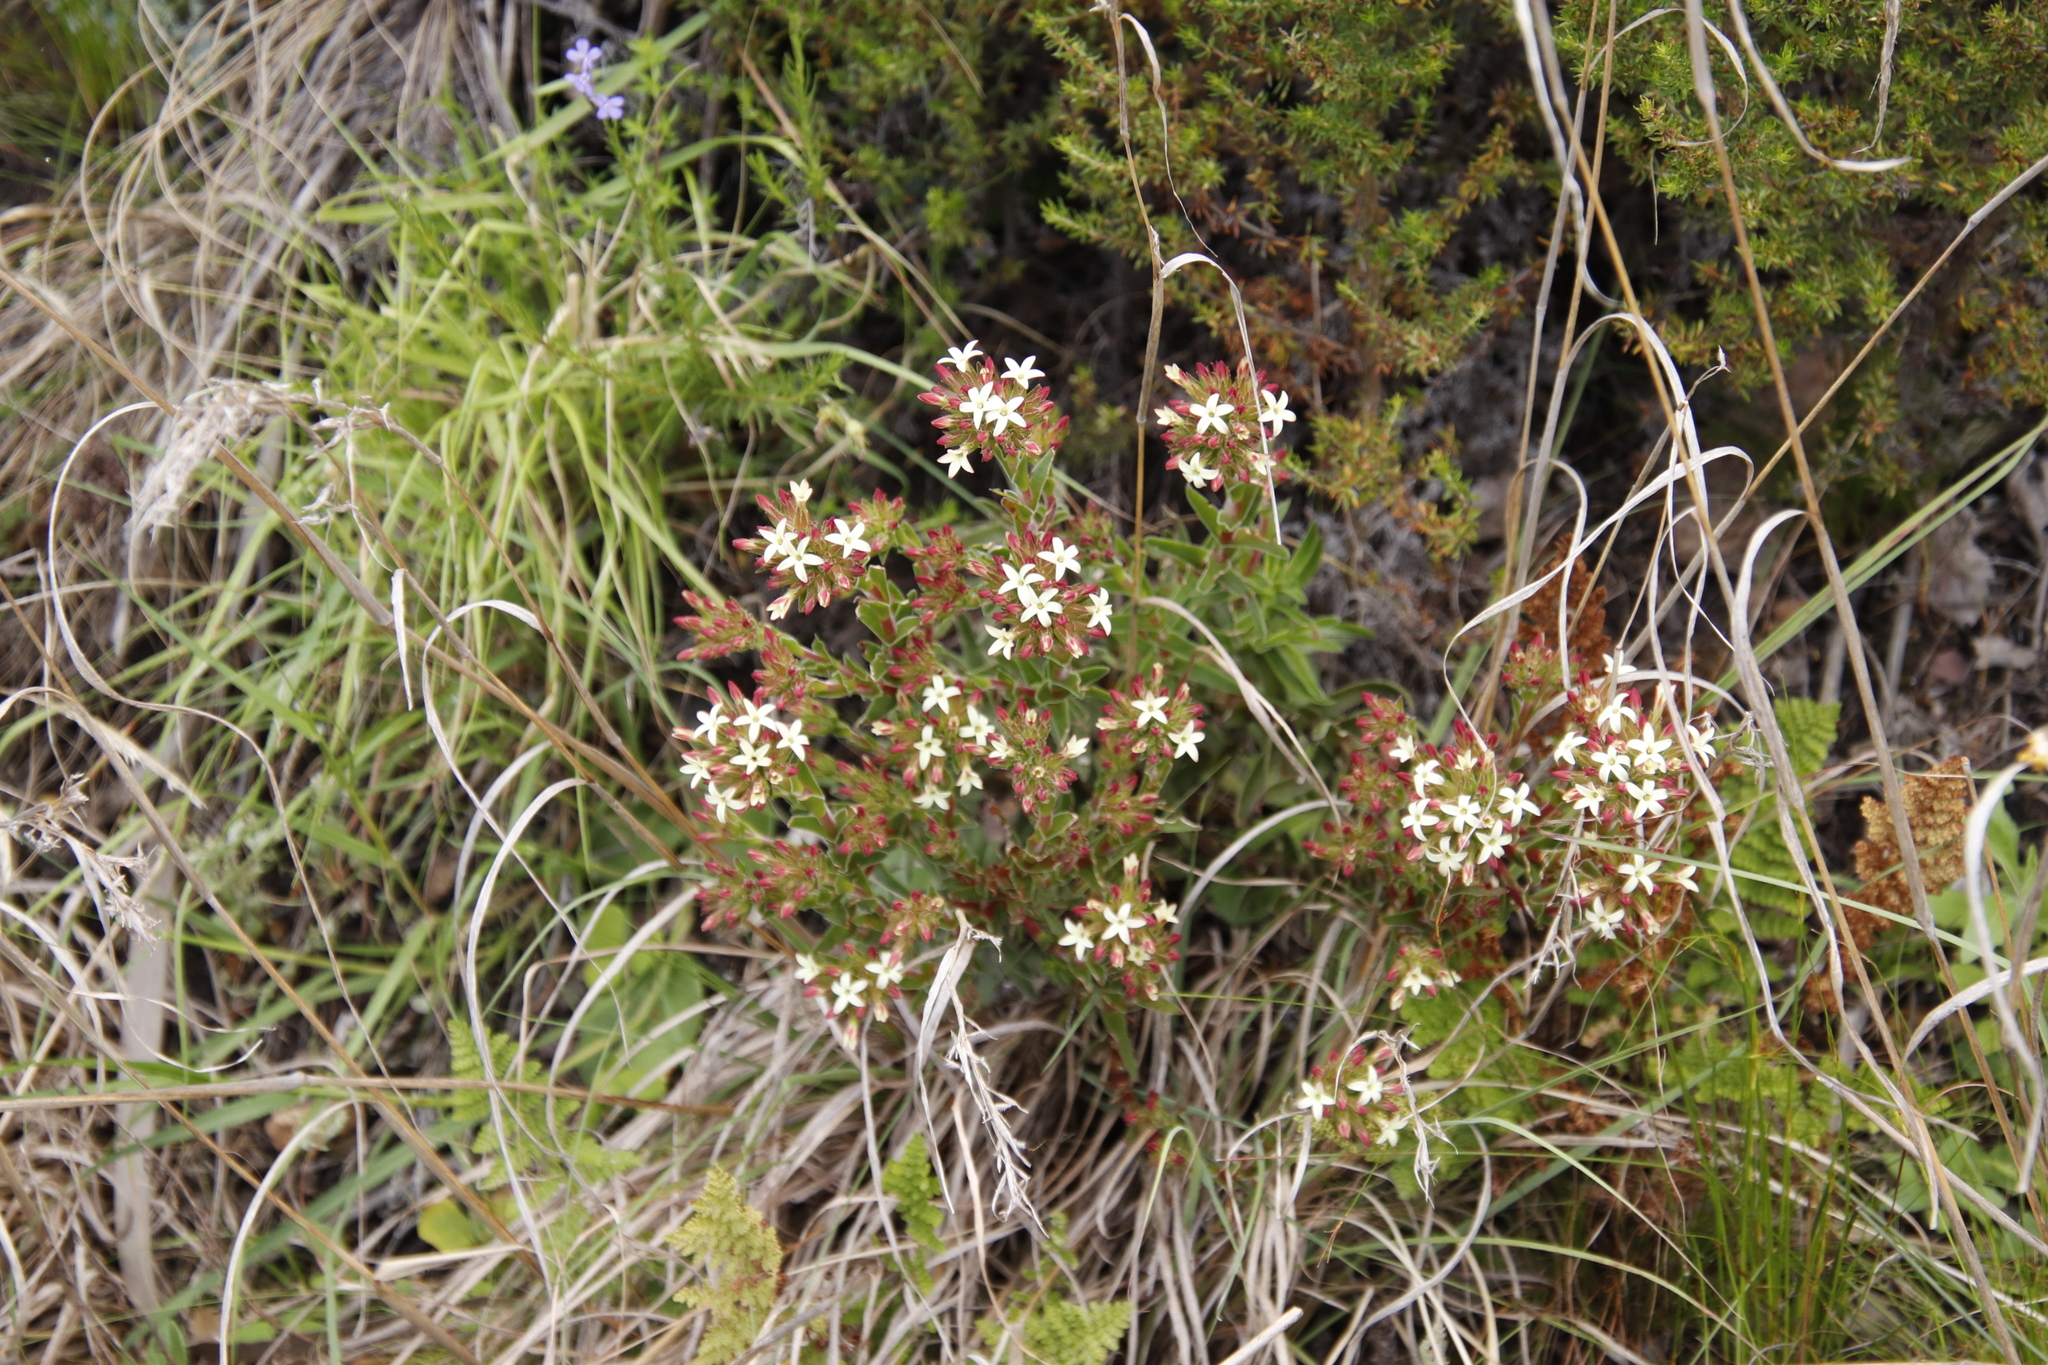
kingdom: Plantae
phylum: Tracheophyta
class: Magnoliopsida
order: Saxifragales
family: Crassulaceae
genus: Crassula
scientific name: Crassula fascicularis
